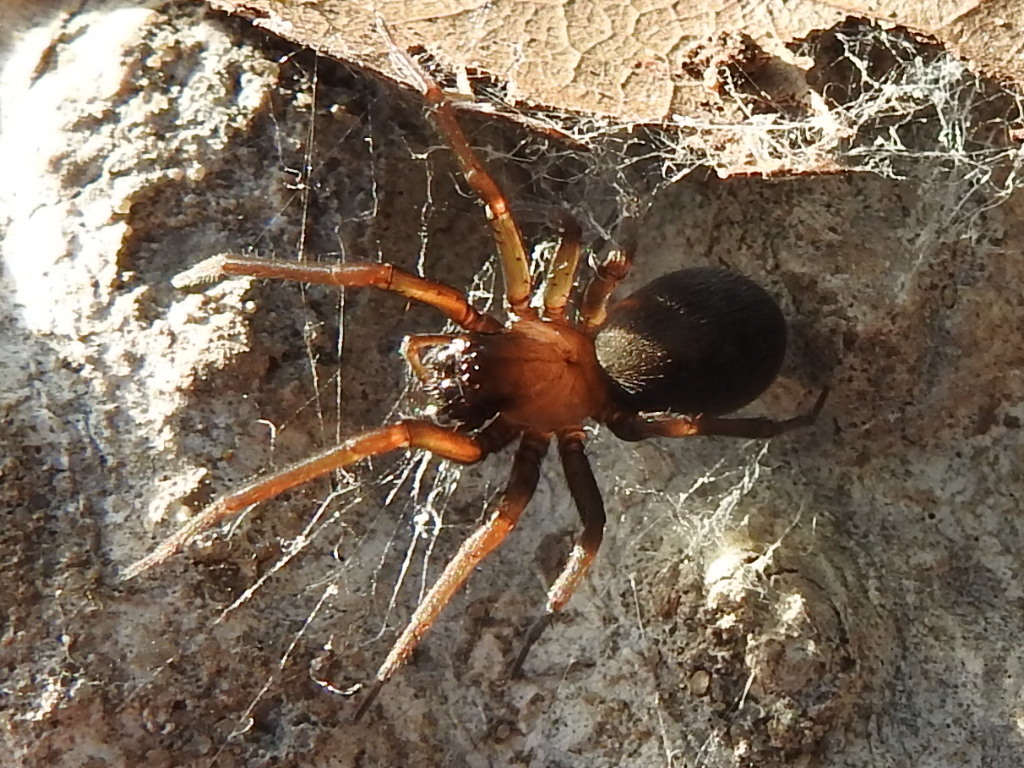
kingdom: Animalia
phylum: Arthropoda
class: Arachnida
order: Araneae
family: Desidae
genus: Metaltella
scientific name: Metaltella simoni
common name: Cribellate spider
